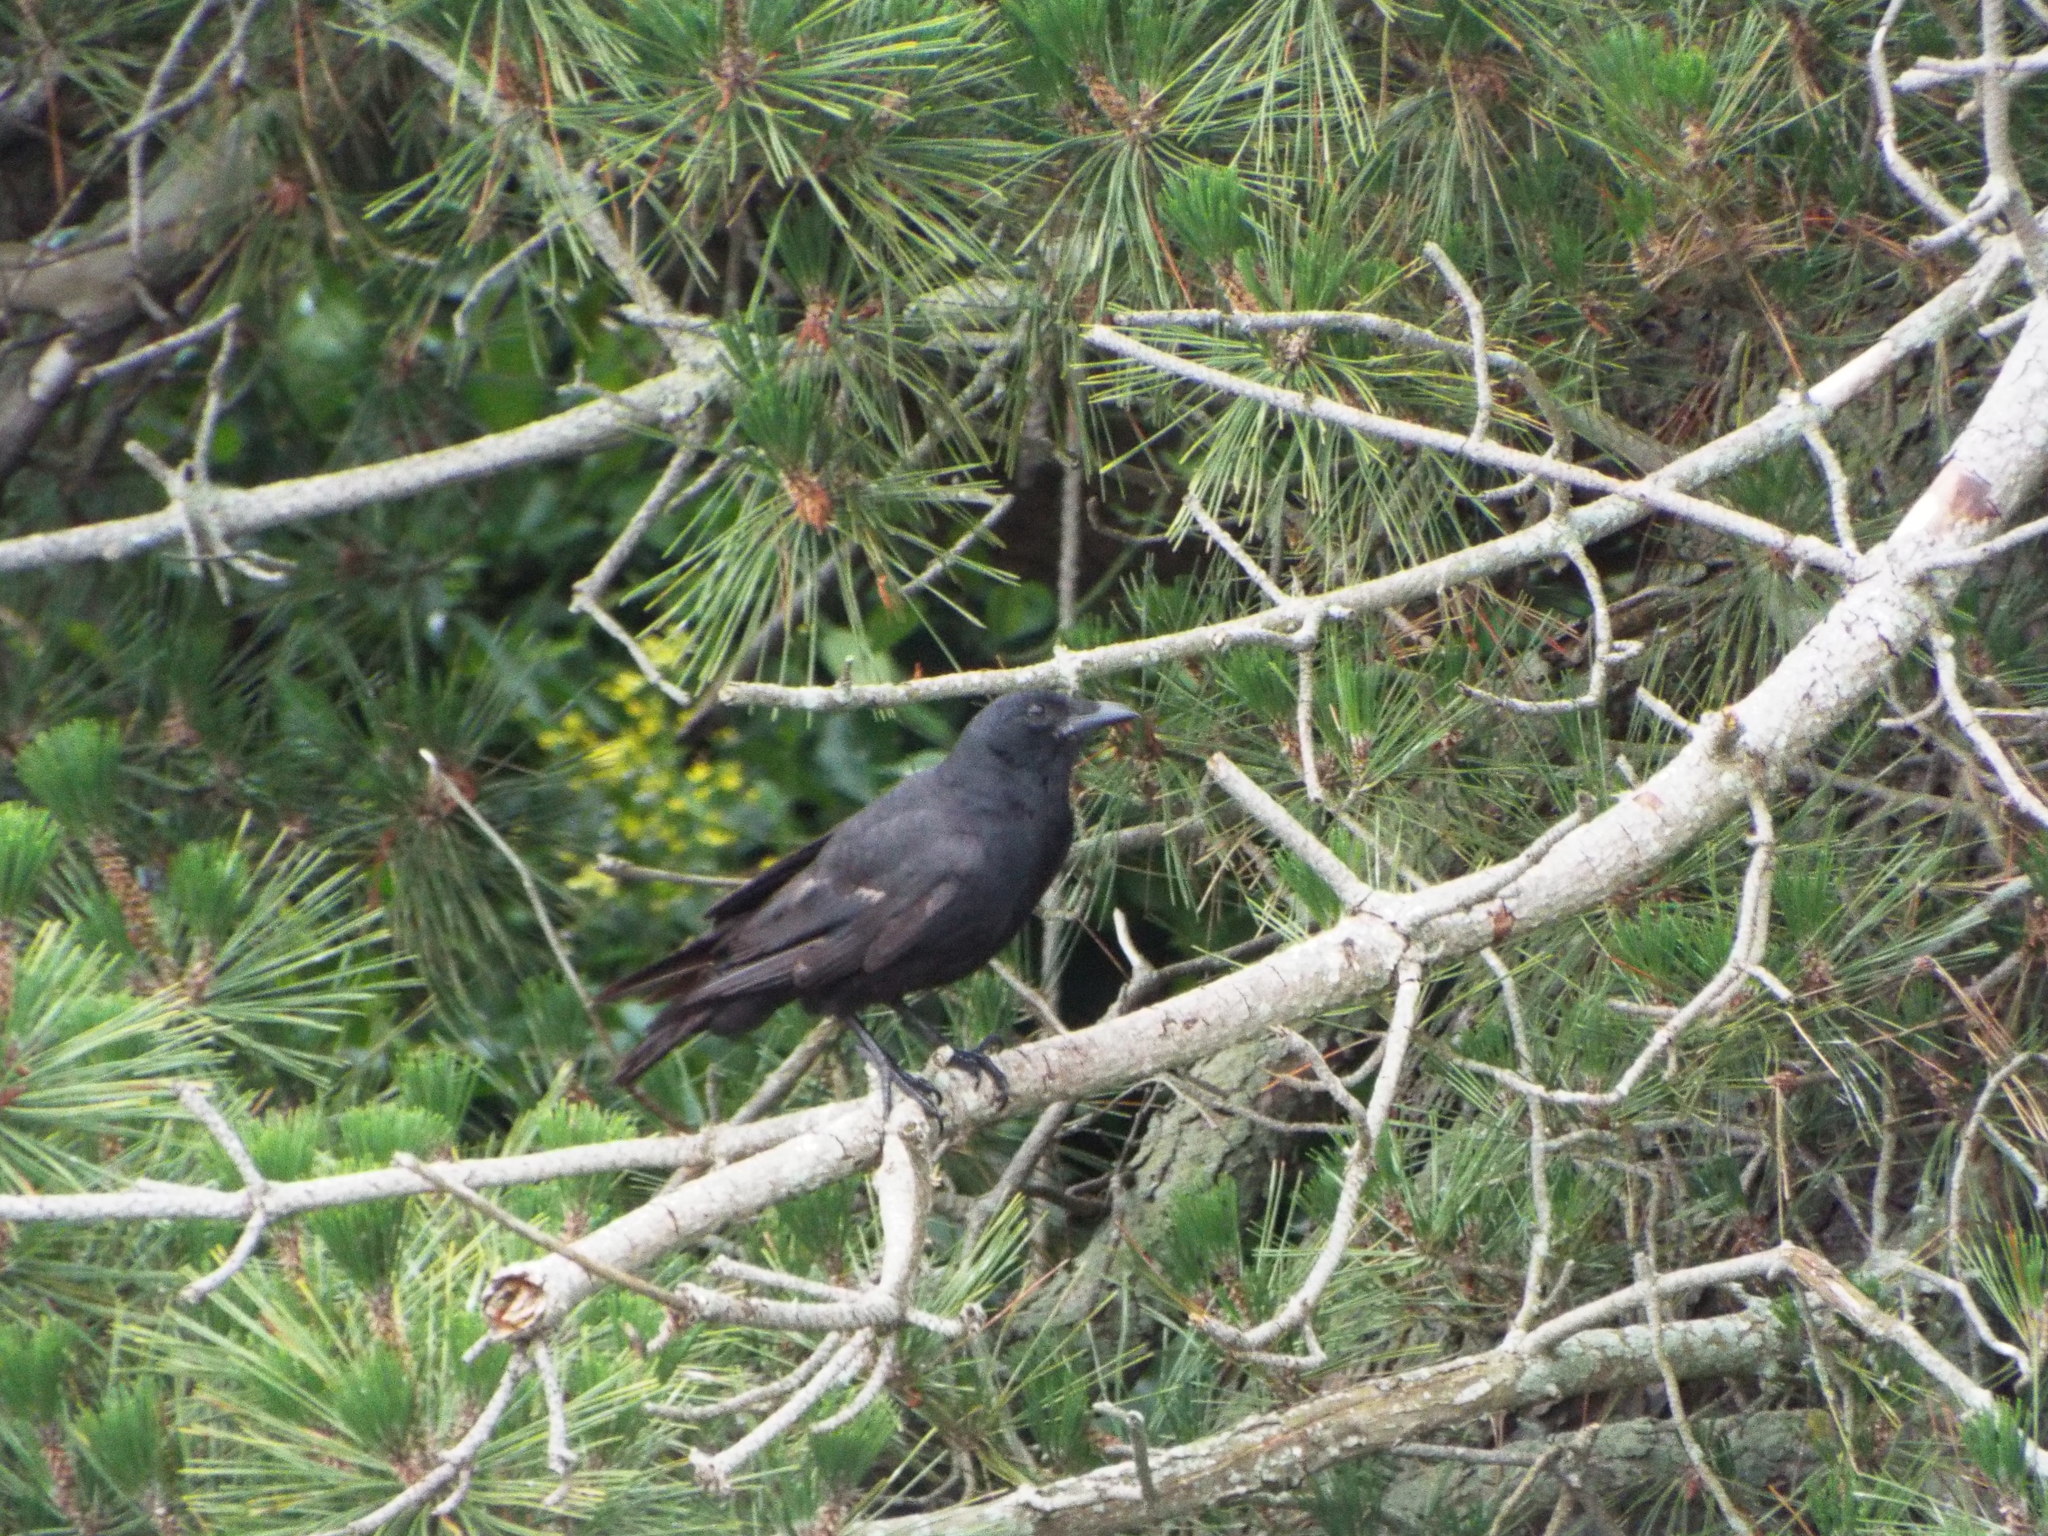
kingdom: Animalia
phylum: Chordata
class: Aves
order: Passeriformes
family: Corvidae
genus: Corvus
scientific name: Corvus ossifragus
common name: Fish crow
